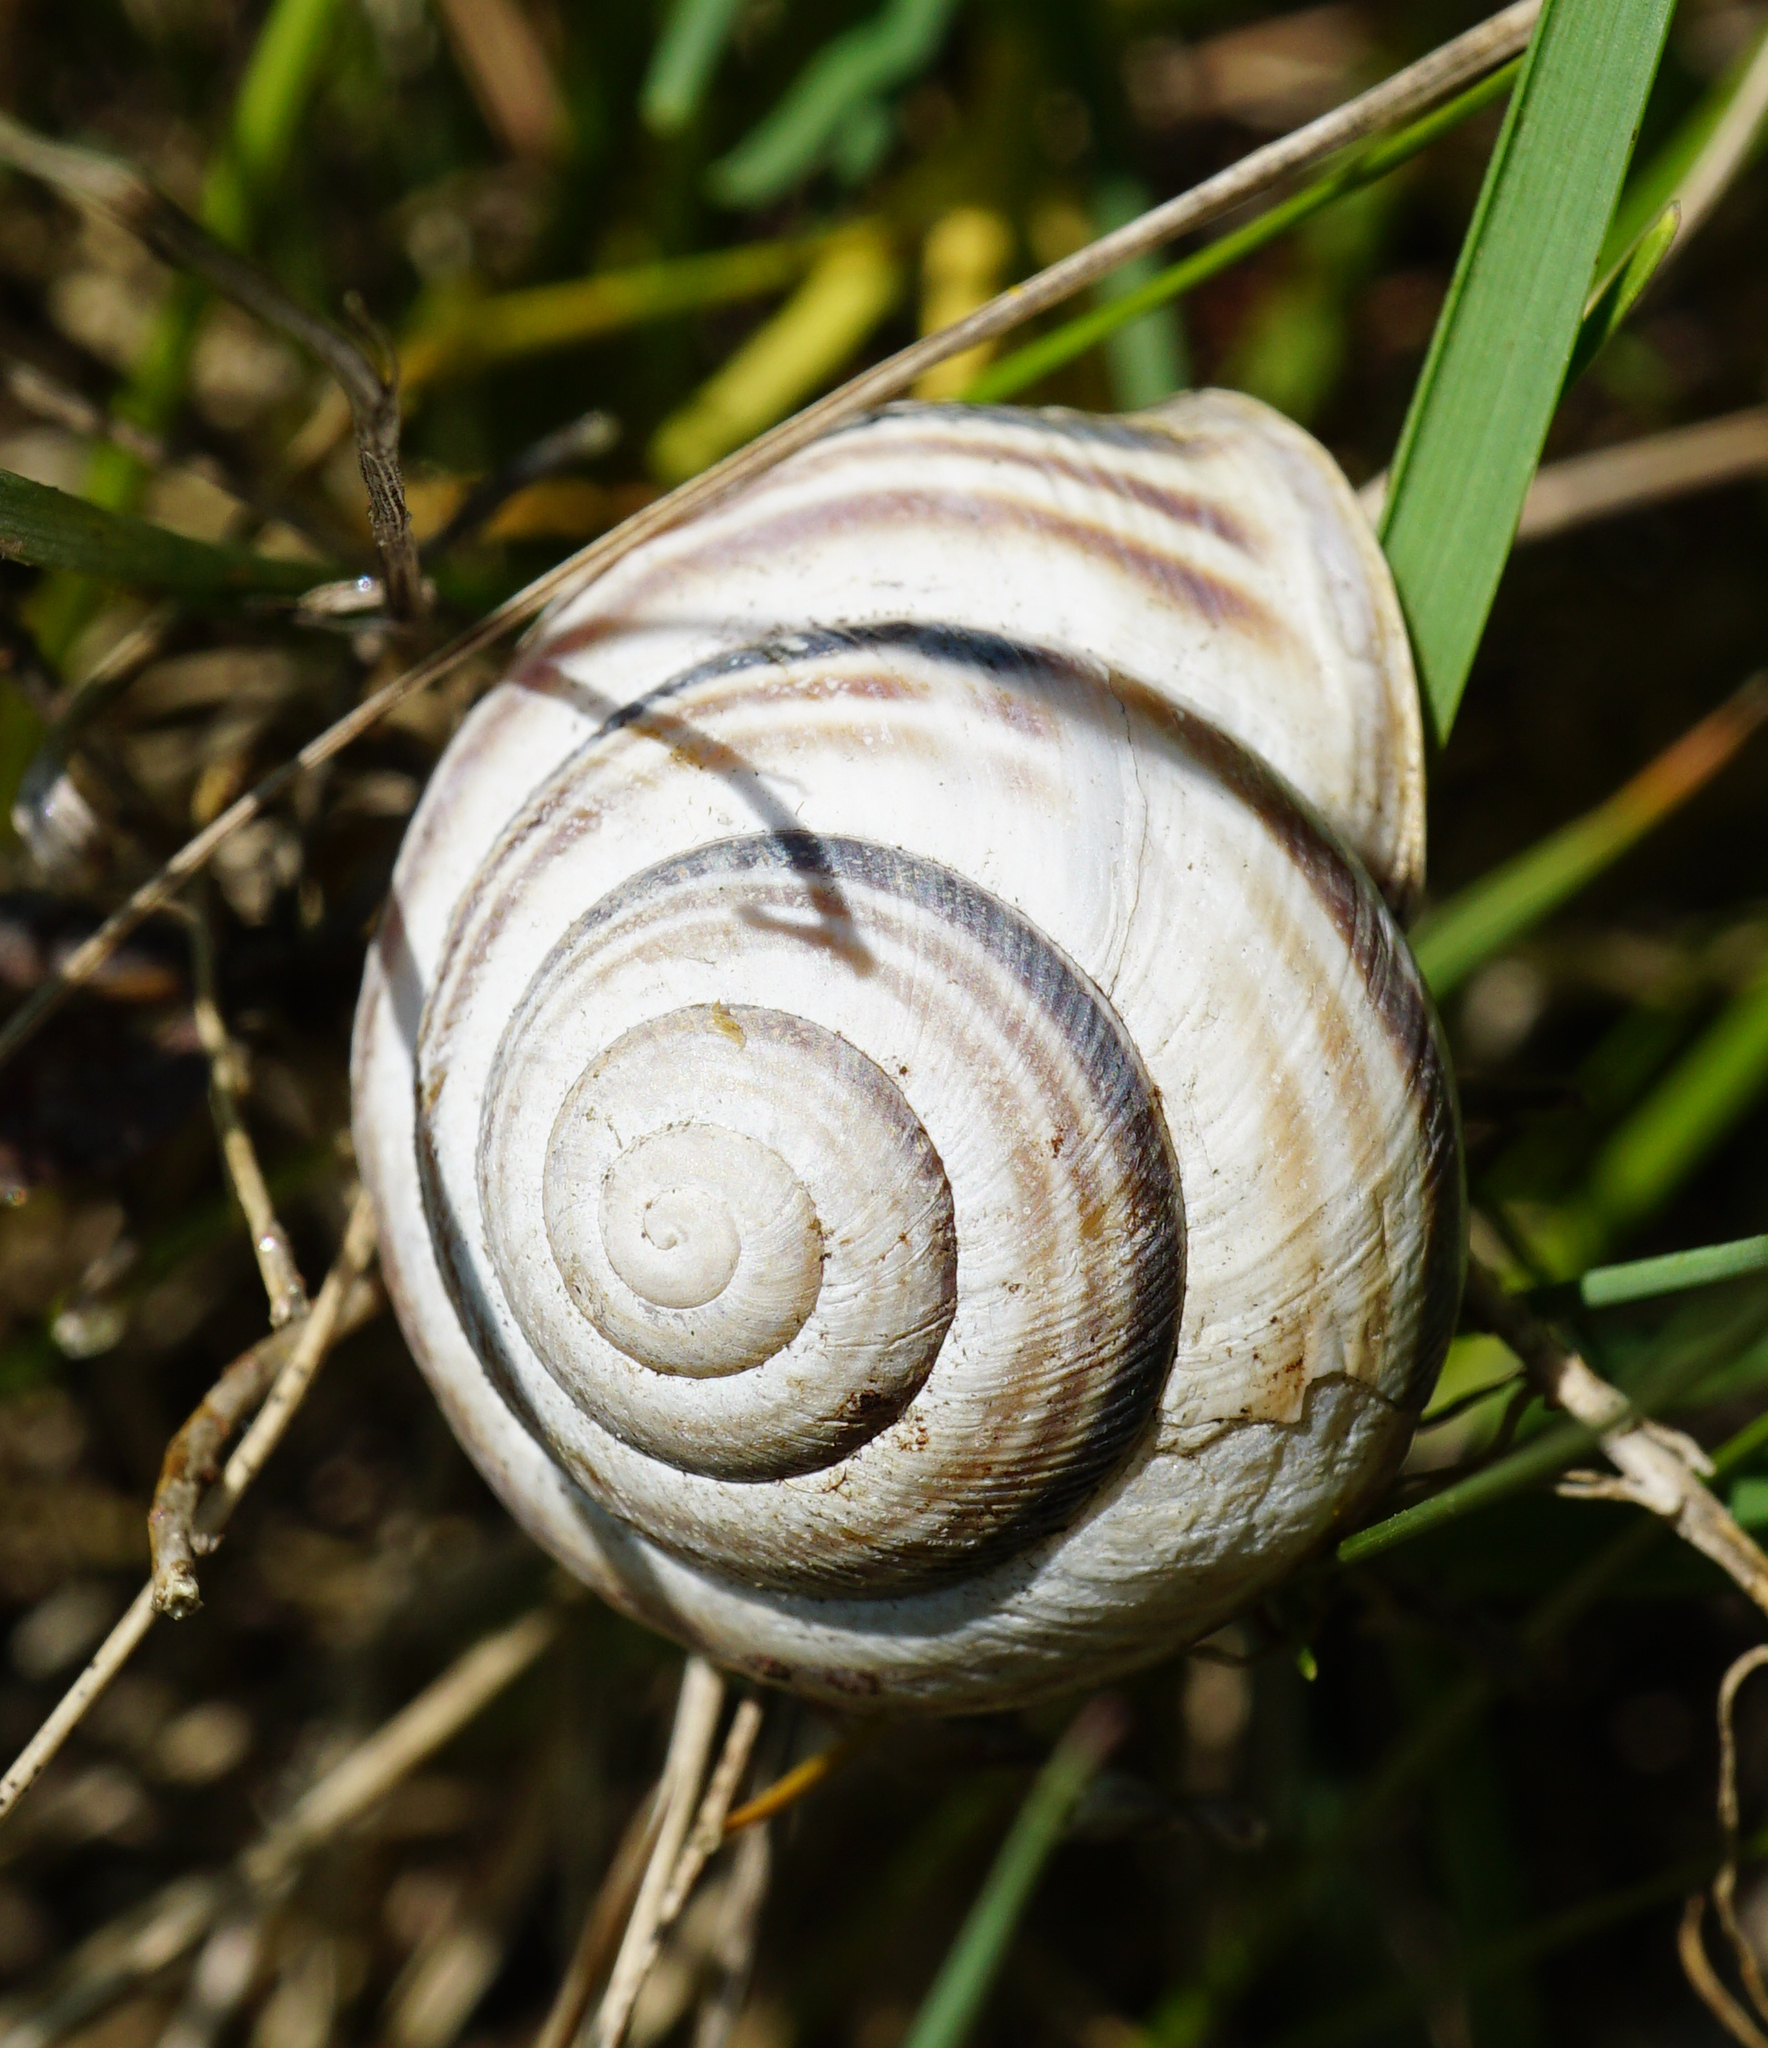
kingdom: Animalia
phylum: Mollusca
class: Gastropoda
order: Stylommatophora
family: Helicidae
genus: Caucasotachea
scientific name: Caucasotachea vindobonensis
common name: European helicid land snail
